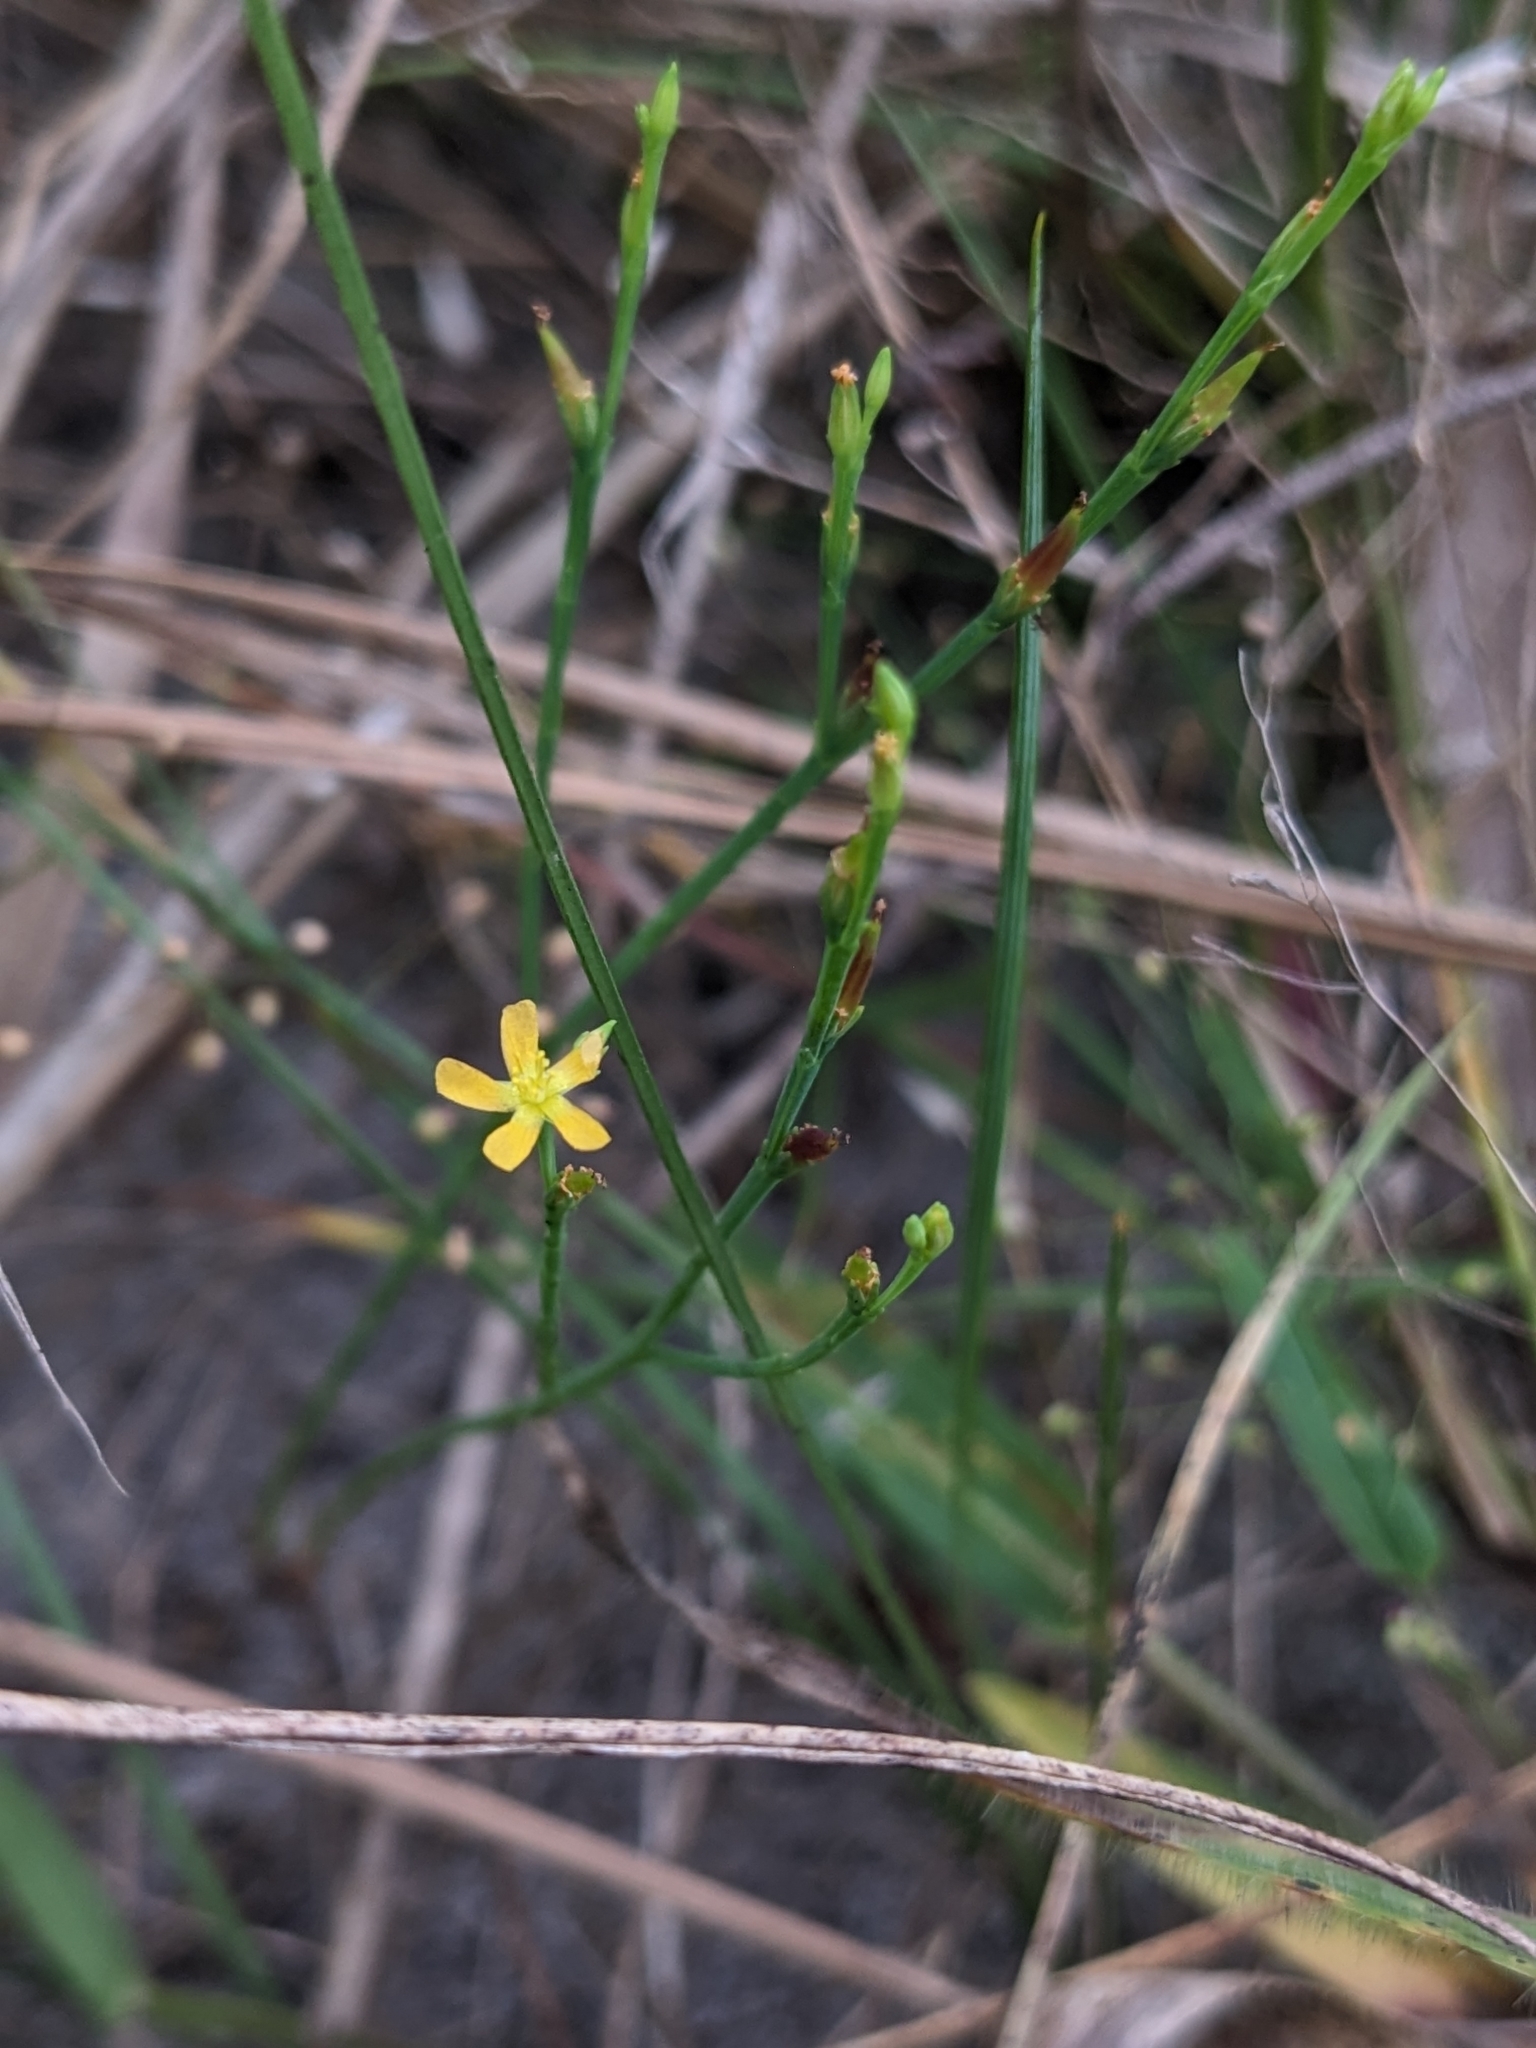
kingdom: Plantae
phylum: Tracheophyta
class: Magnoliopsida
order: Malpighiales
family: Hypericaceae
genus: Hypericum
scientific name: Hypericum gentianoides
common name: Gentian-leaved st. john's-wort
